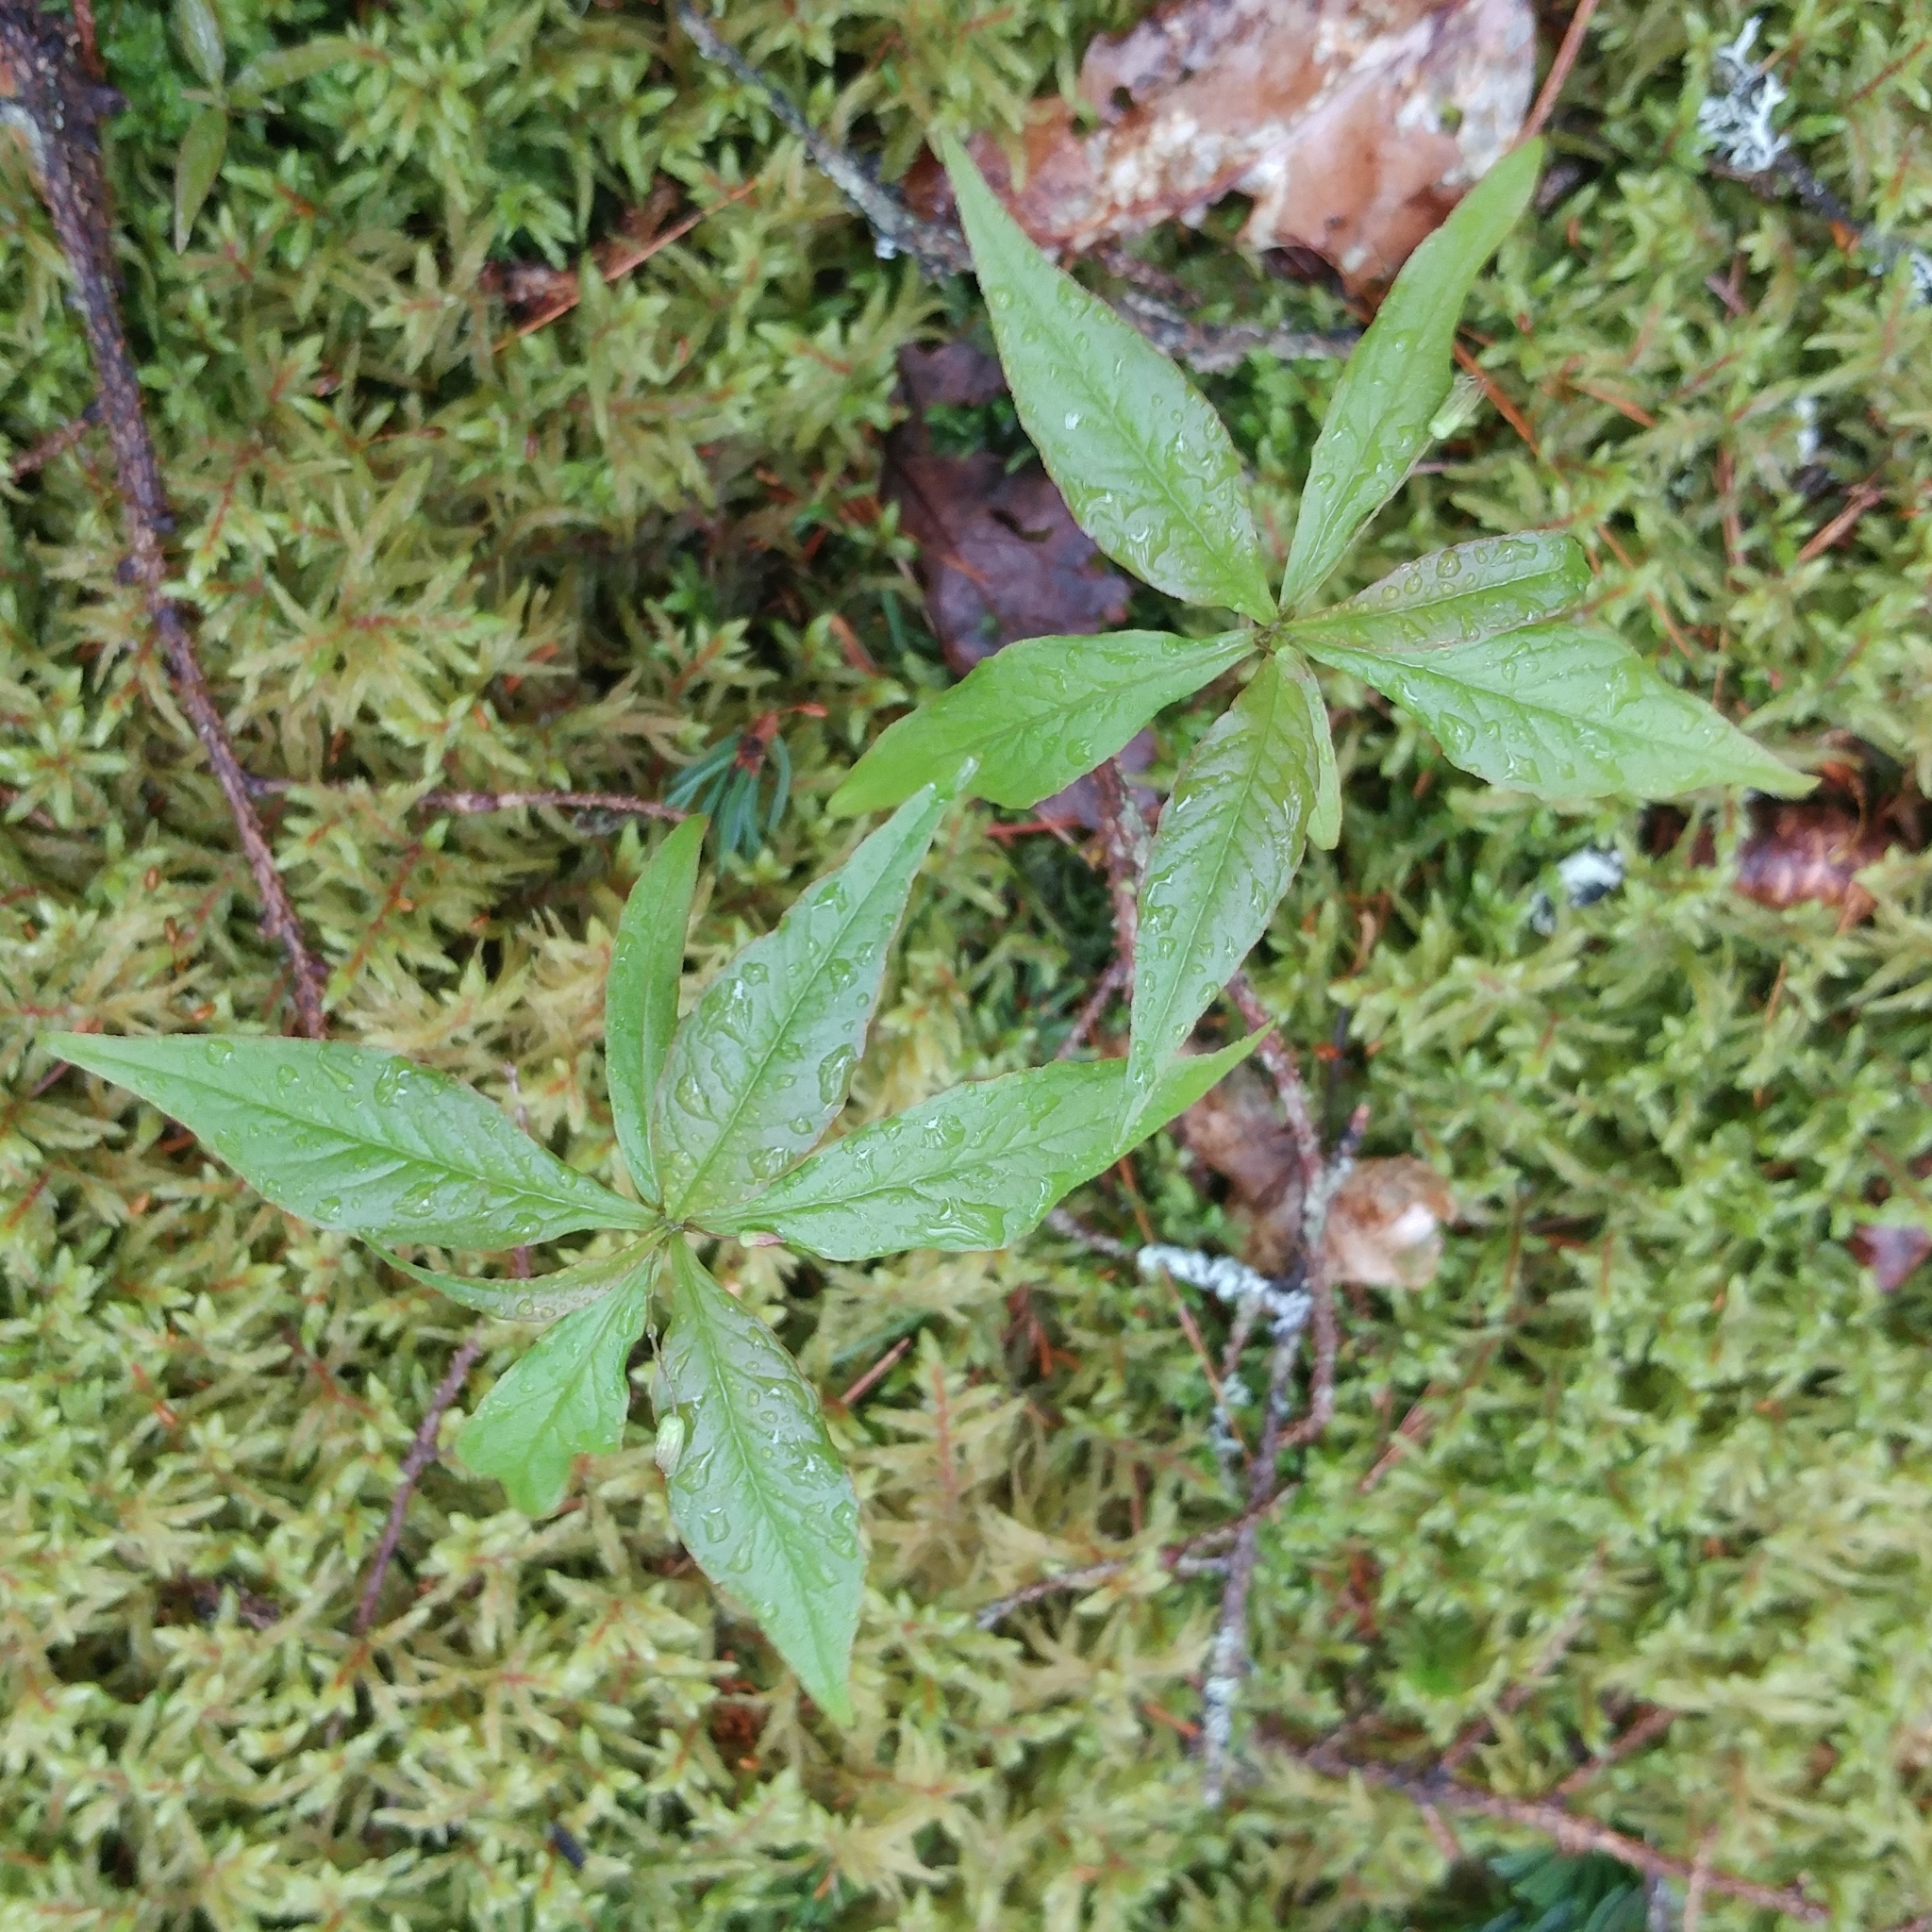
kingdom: Plantae
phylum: Tracheophyta
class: Magnoliopsida
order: Ericales
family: Primulaceae
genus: Lysimachia
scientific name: Lysimachia borealis
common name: American starflower
